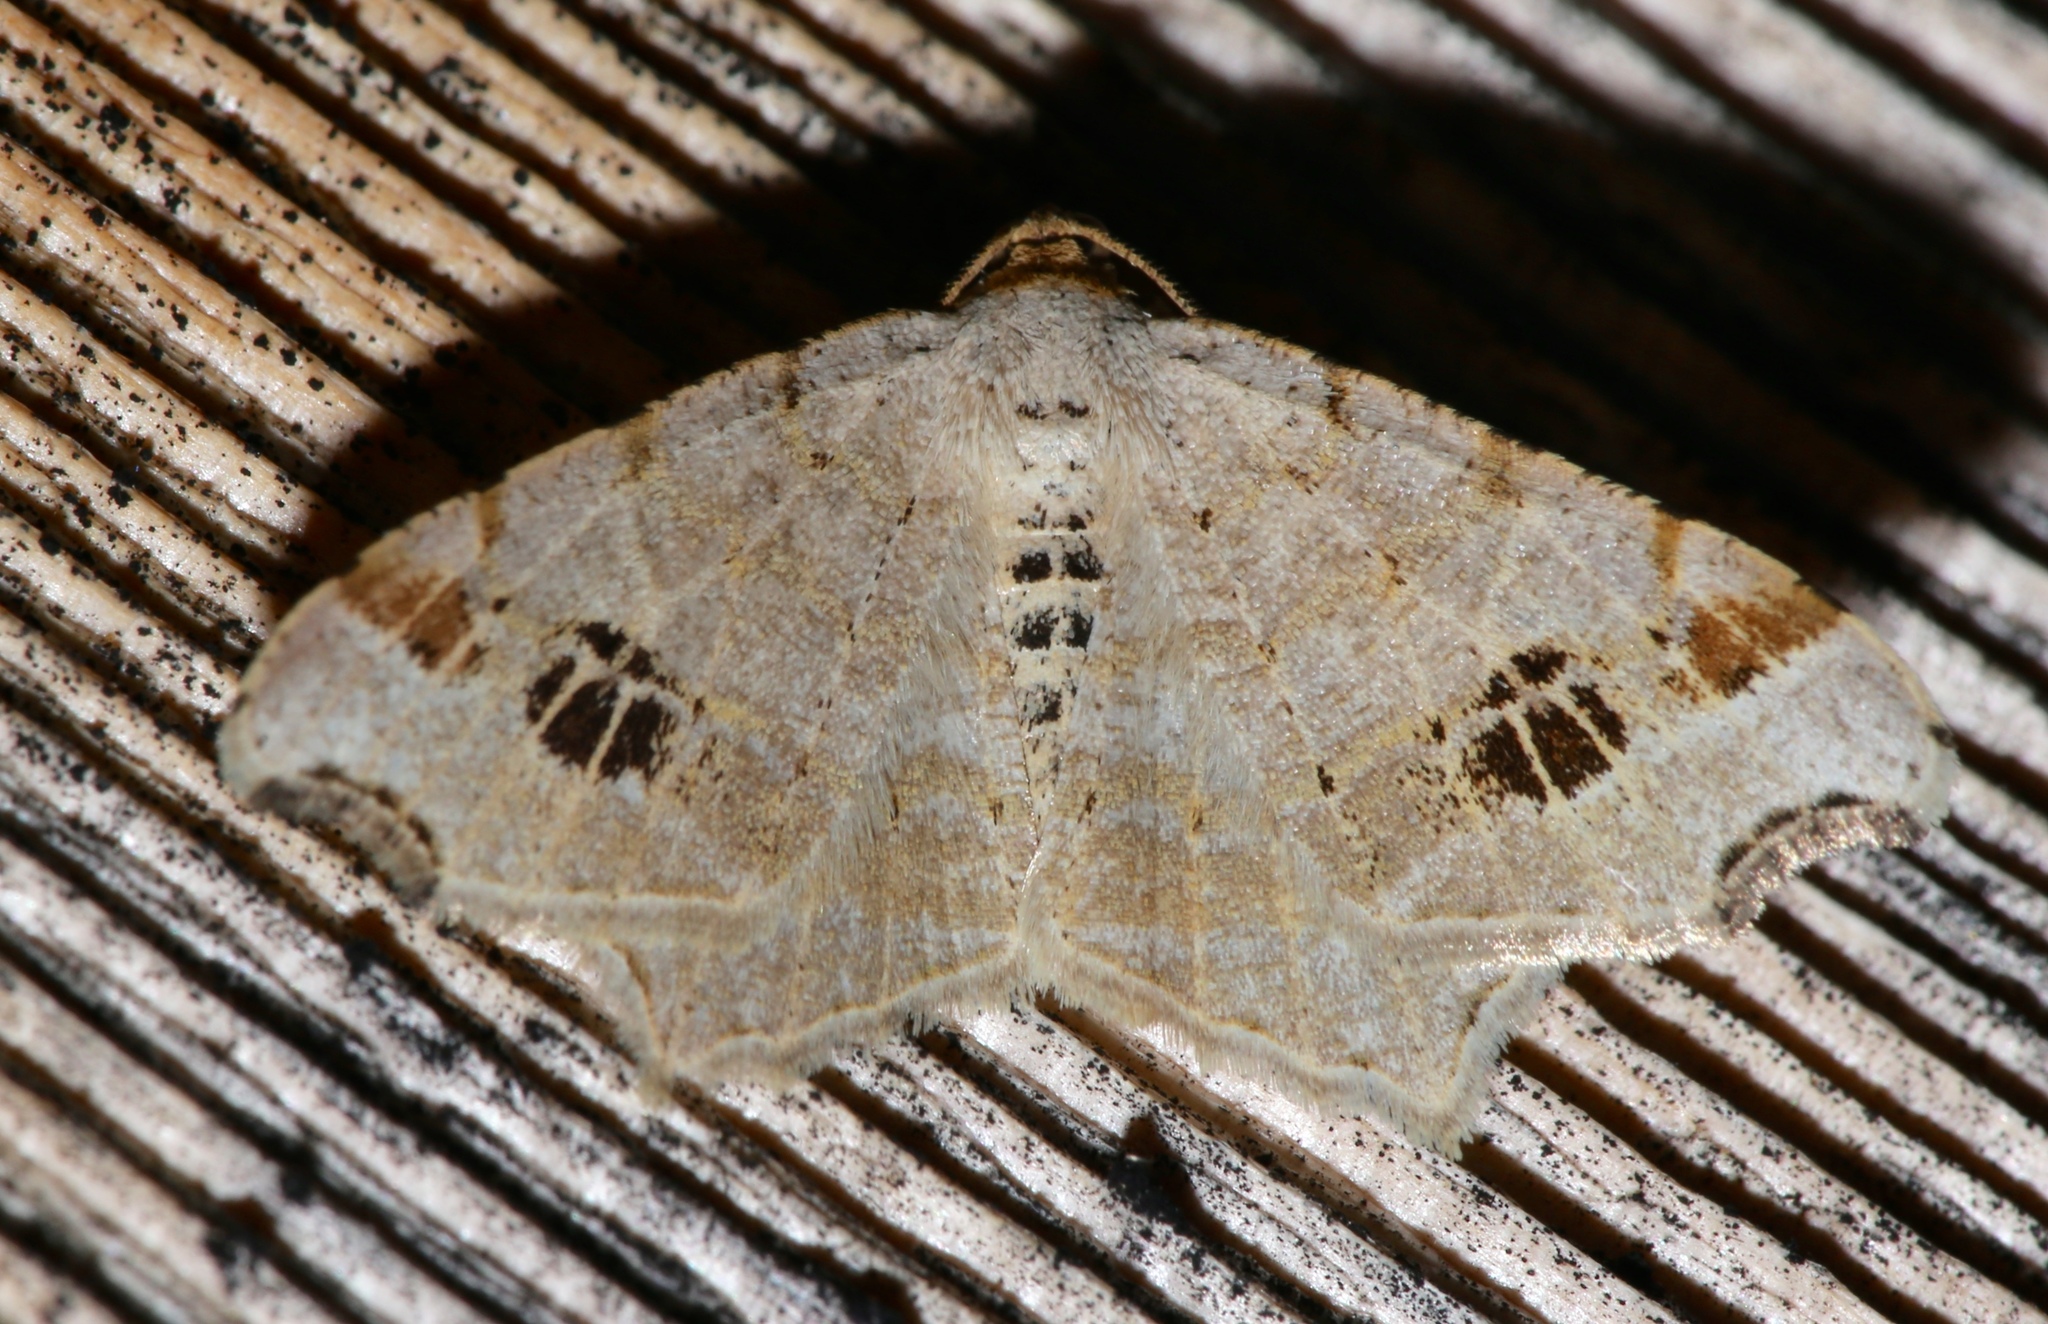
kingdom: Animalia
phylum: Arthropoda
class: Insecta
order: Lepidoptera
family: Geometridae
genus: Macaria
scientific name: Macaria aemulataria
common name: Common angle
